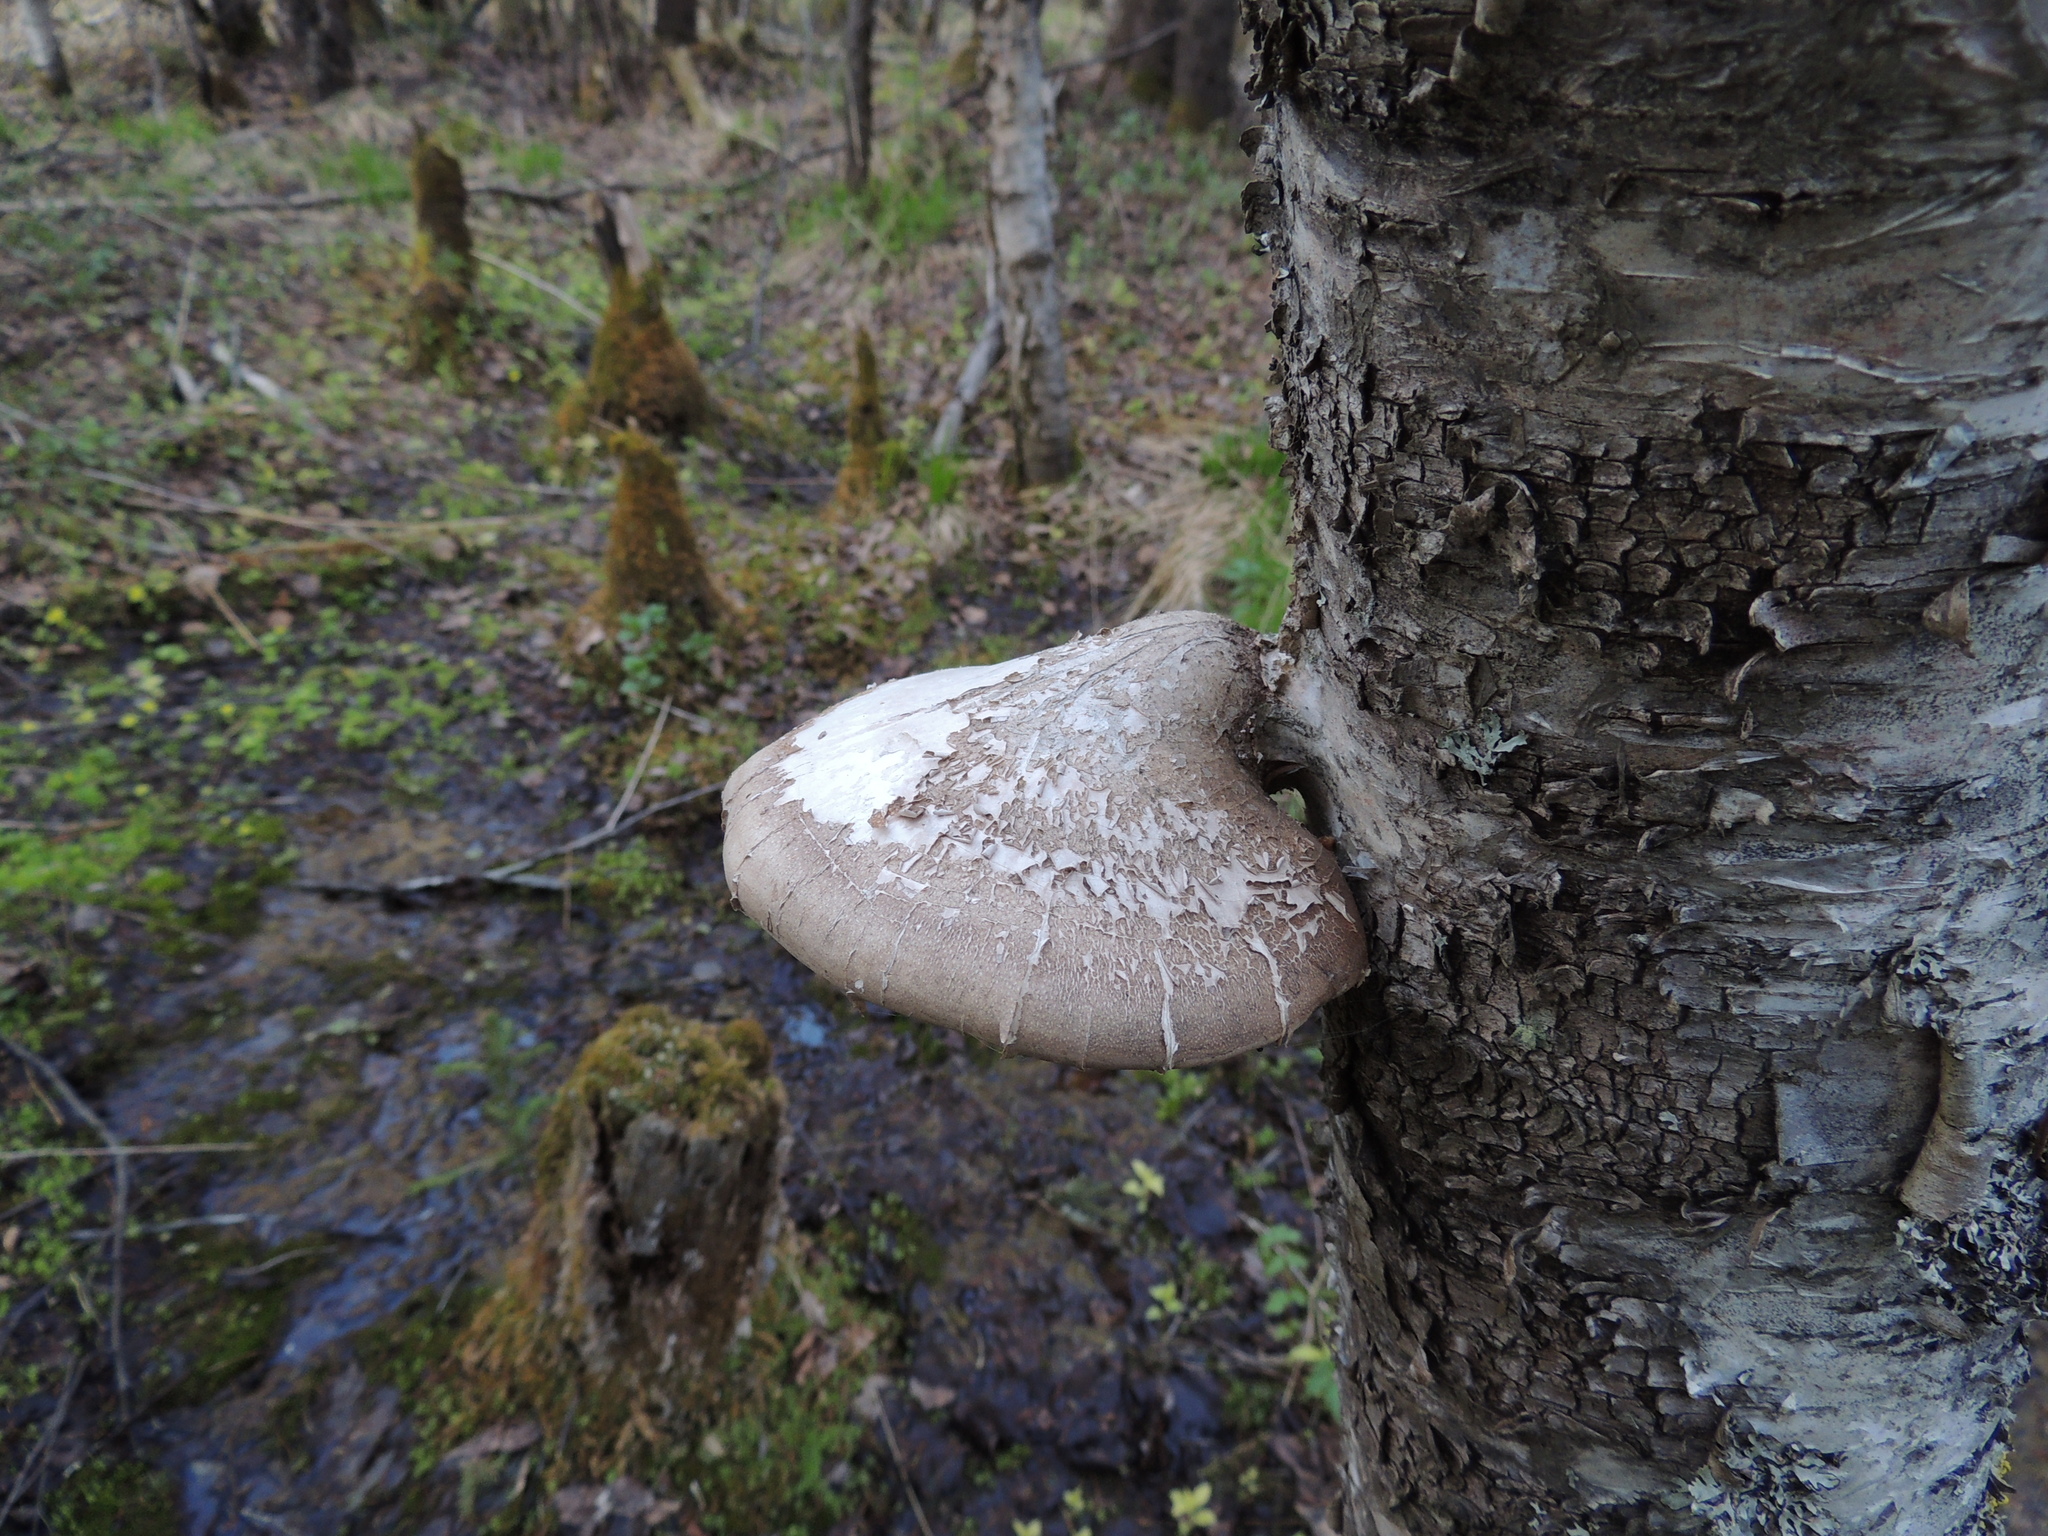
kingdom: Fungi
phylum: Basidiomycota
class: Agaricomycetes
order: Polyporales
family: Fomitopsidaceae
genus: Fomitopsis
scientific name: Fomitopsis betulina
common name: Birch polypore
